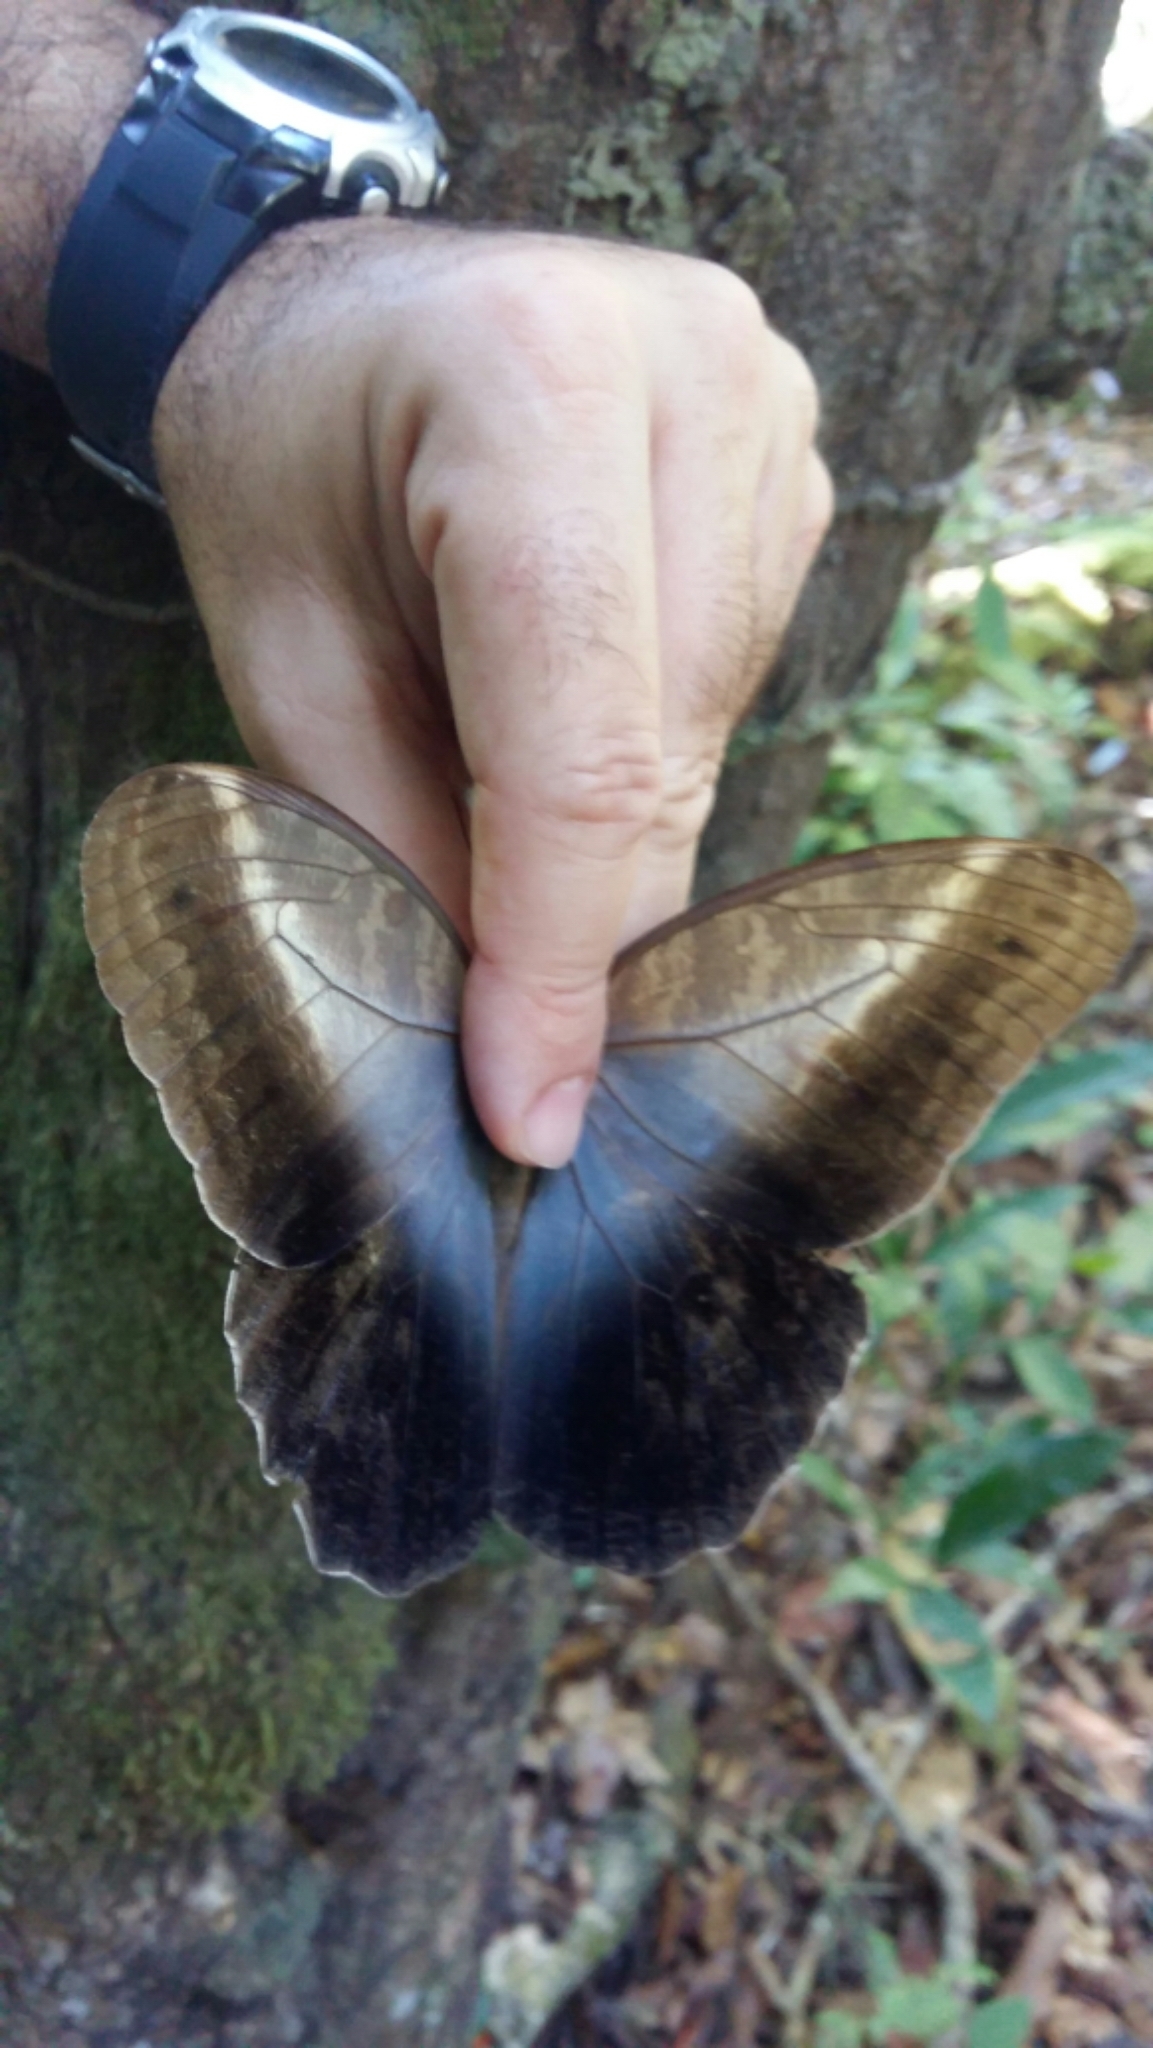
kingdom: Animalia
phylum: Arthropoda
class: Insecta
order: Lepidoptera
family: Nymphalidae
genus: Caligo
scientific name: Caligo teucer
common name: Teucer owl butterfly
